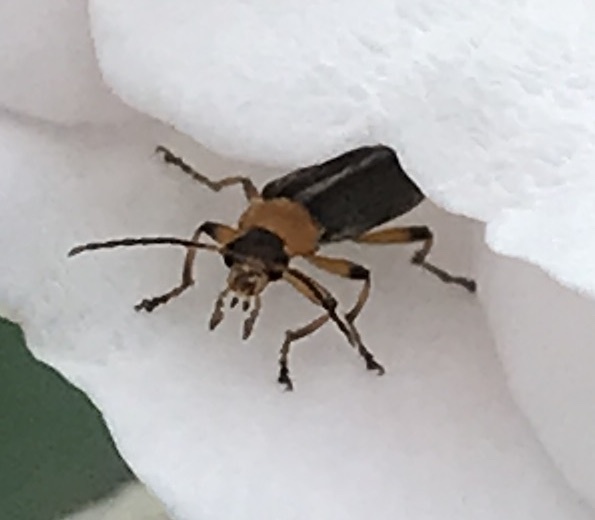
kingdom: Animalia
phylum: Arthropoda
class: Insecta
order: Coleoptera
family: Melandryidae
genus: Osphya
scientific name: Osphya varians
